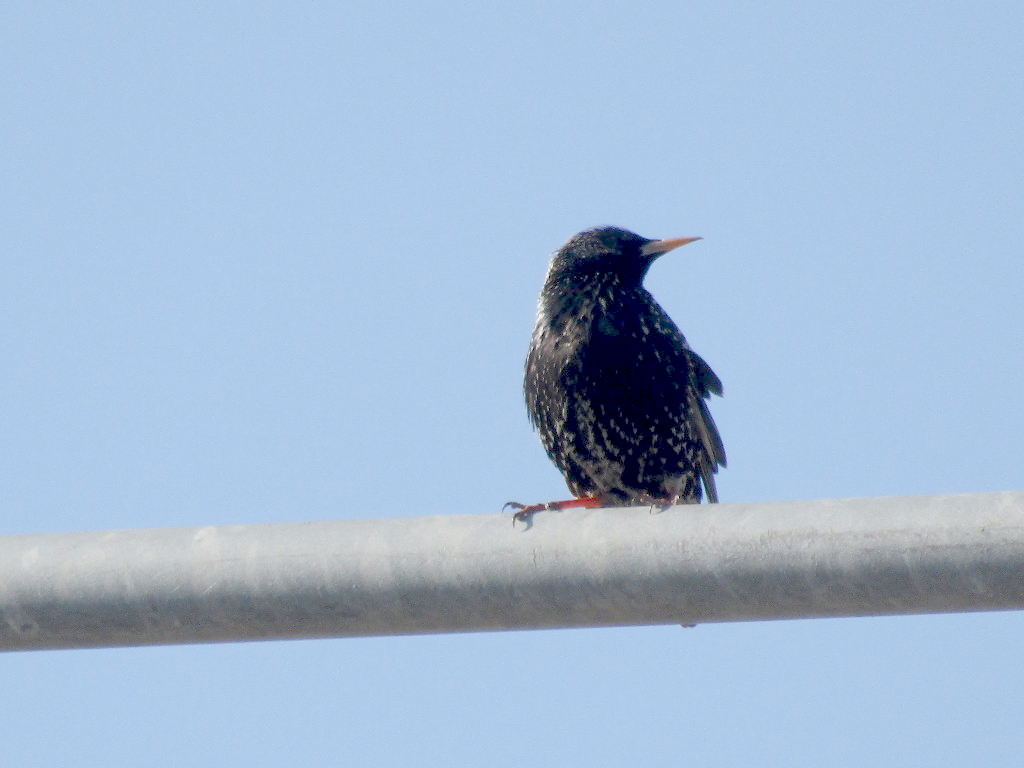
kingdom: Animalia
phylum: Chordata
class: Aves
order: Passeriformes
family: Sturnidae
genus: Sturnus
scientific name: Sturnus vulgaris
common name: Common starling
